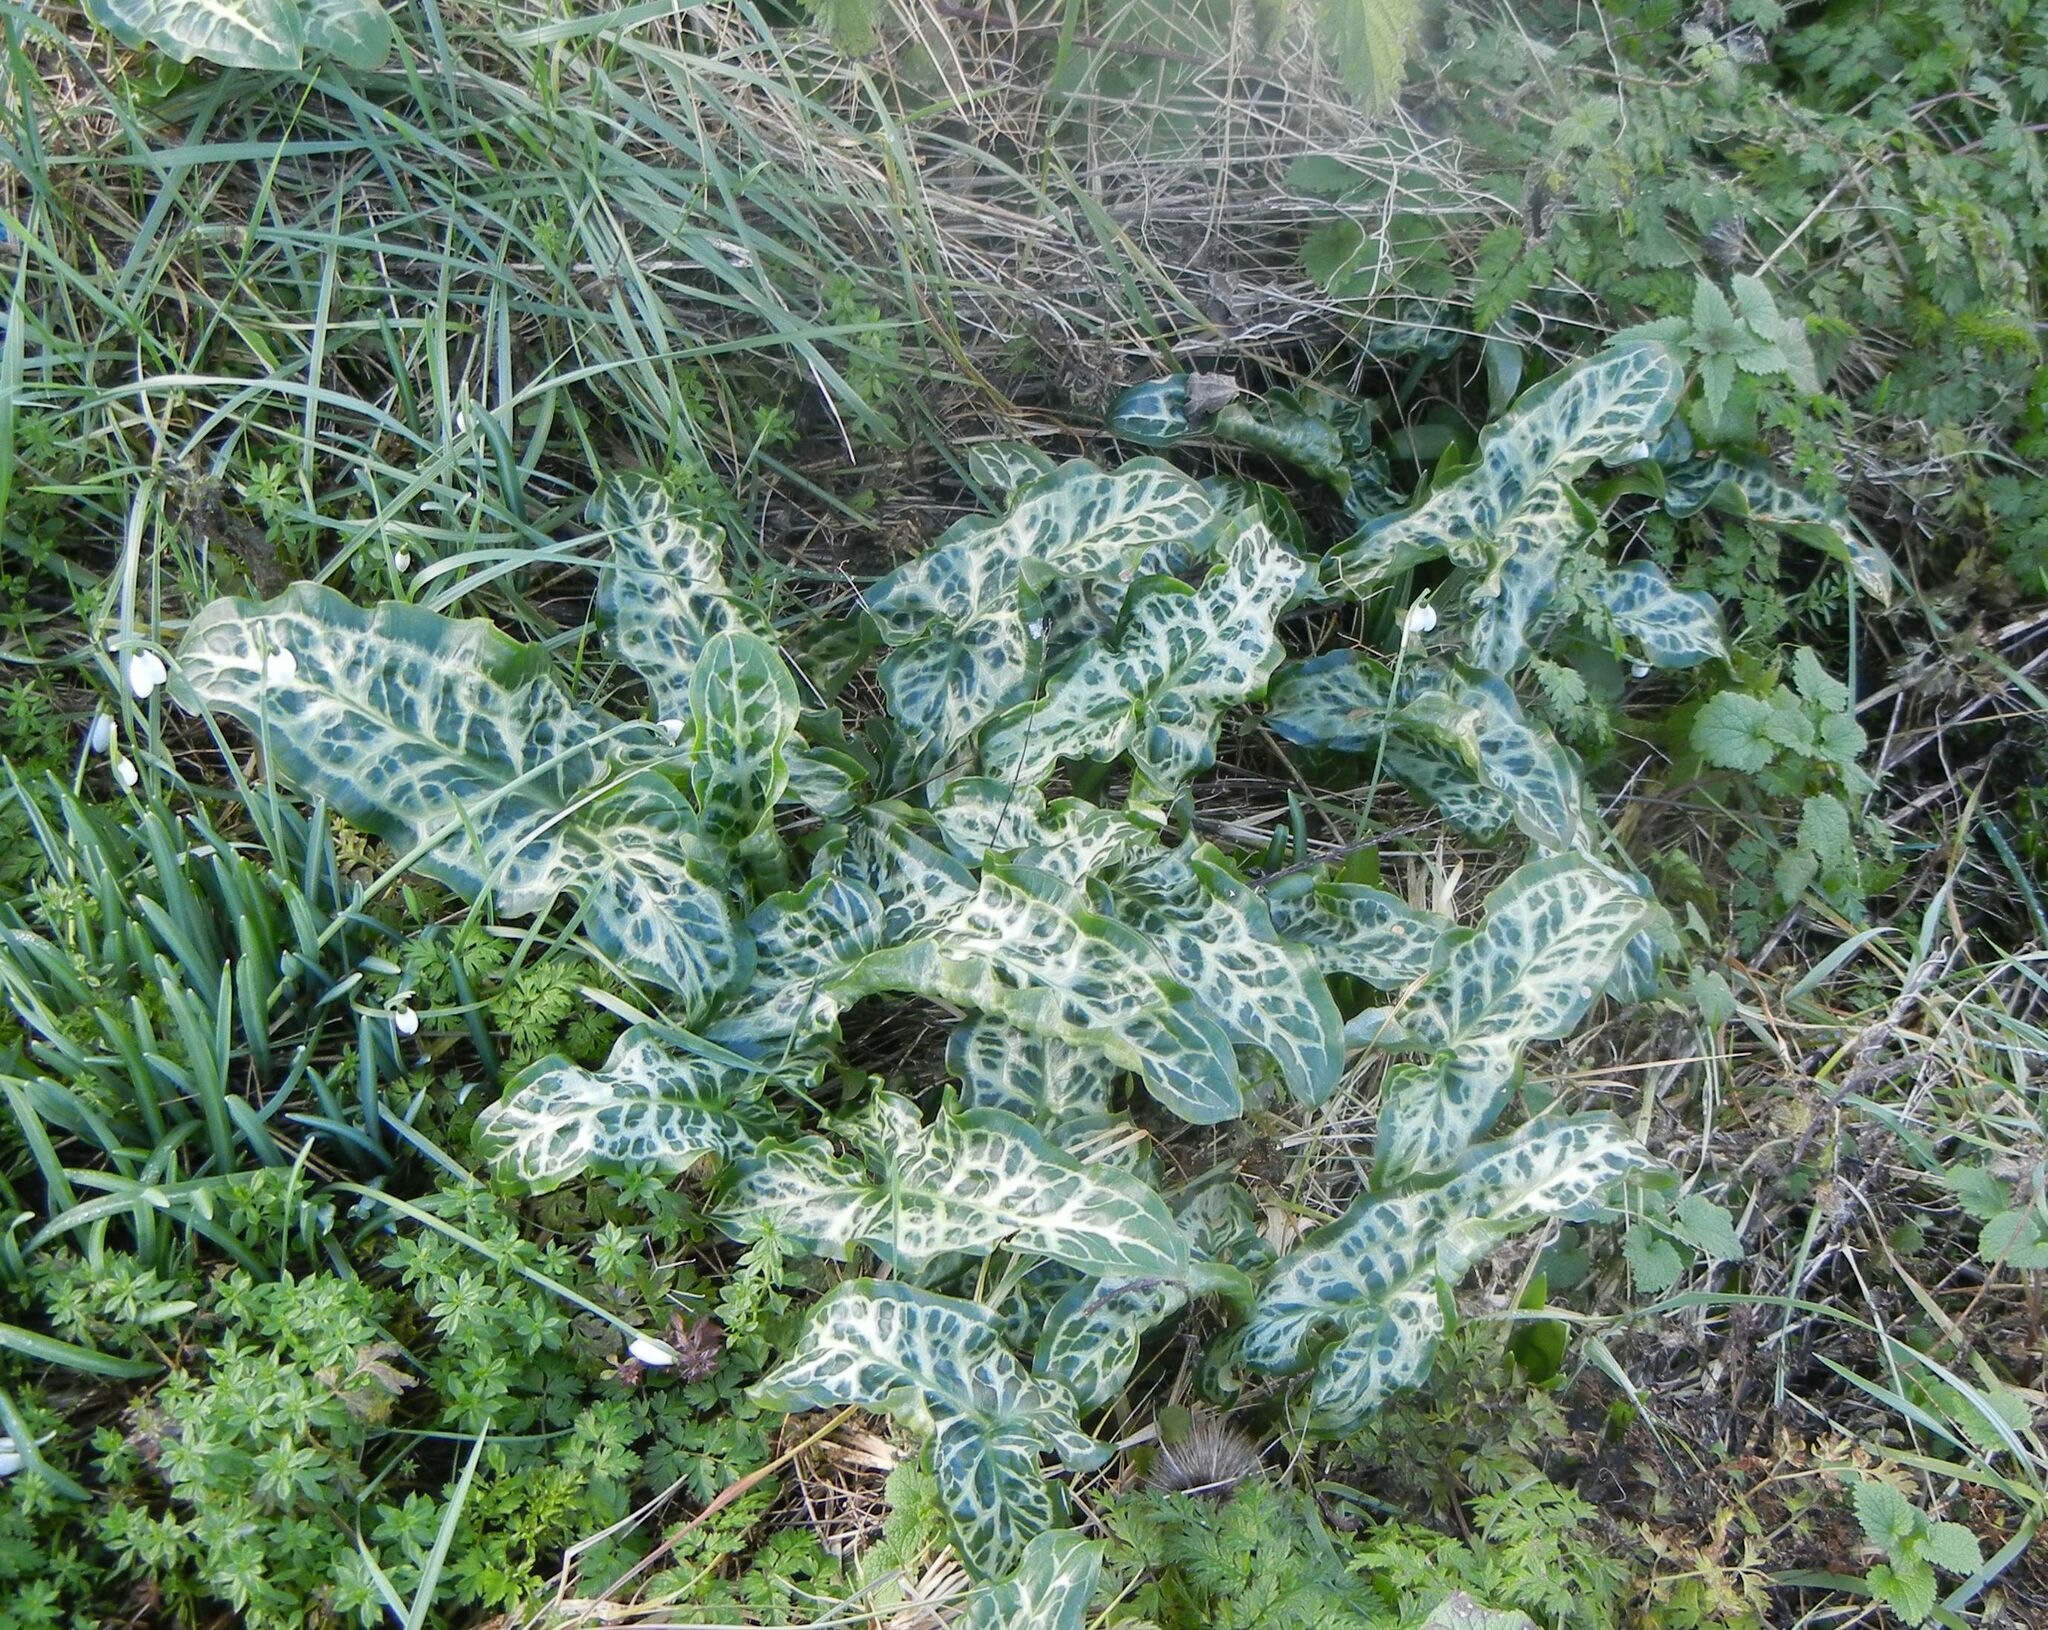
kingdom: Plantae
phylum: Tracheophyta
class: Liliopsida
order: Alismatales
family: Araceae
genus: Arum
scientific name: Arum italicum
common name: Italian lords-and-ladies
